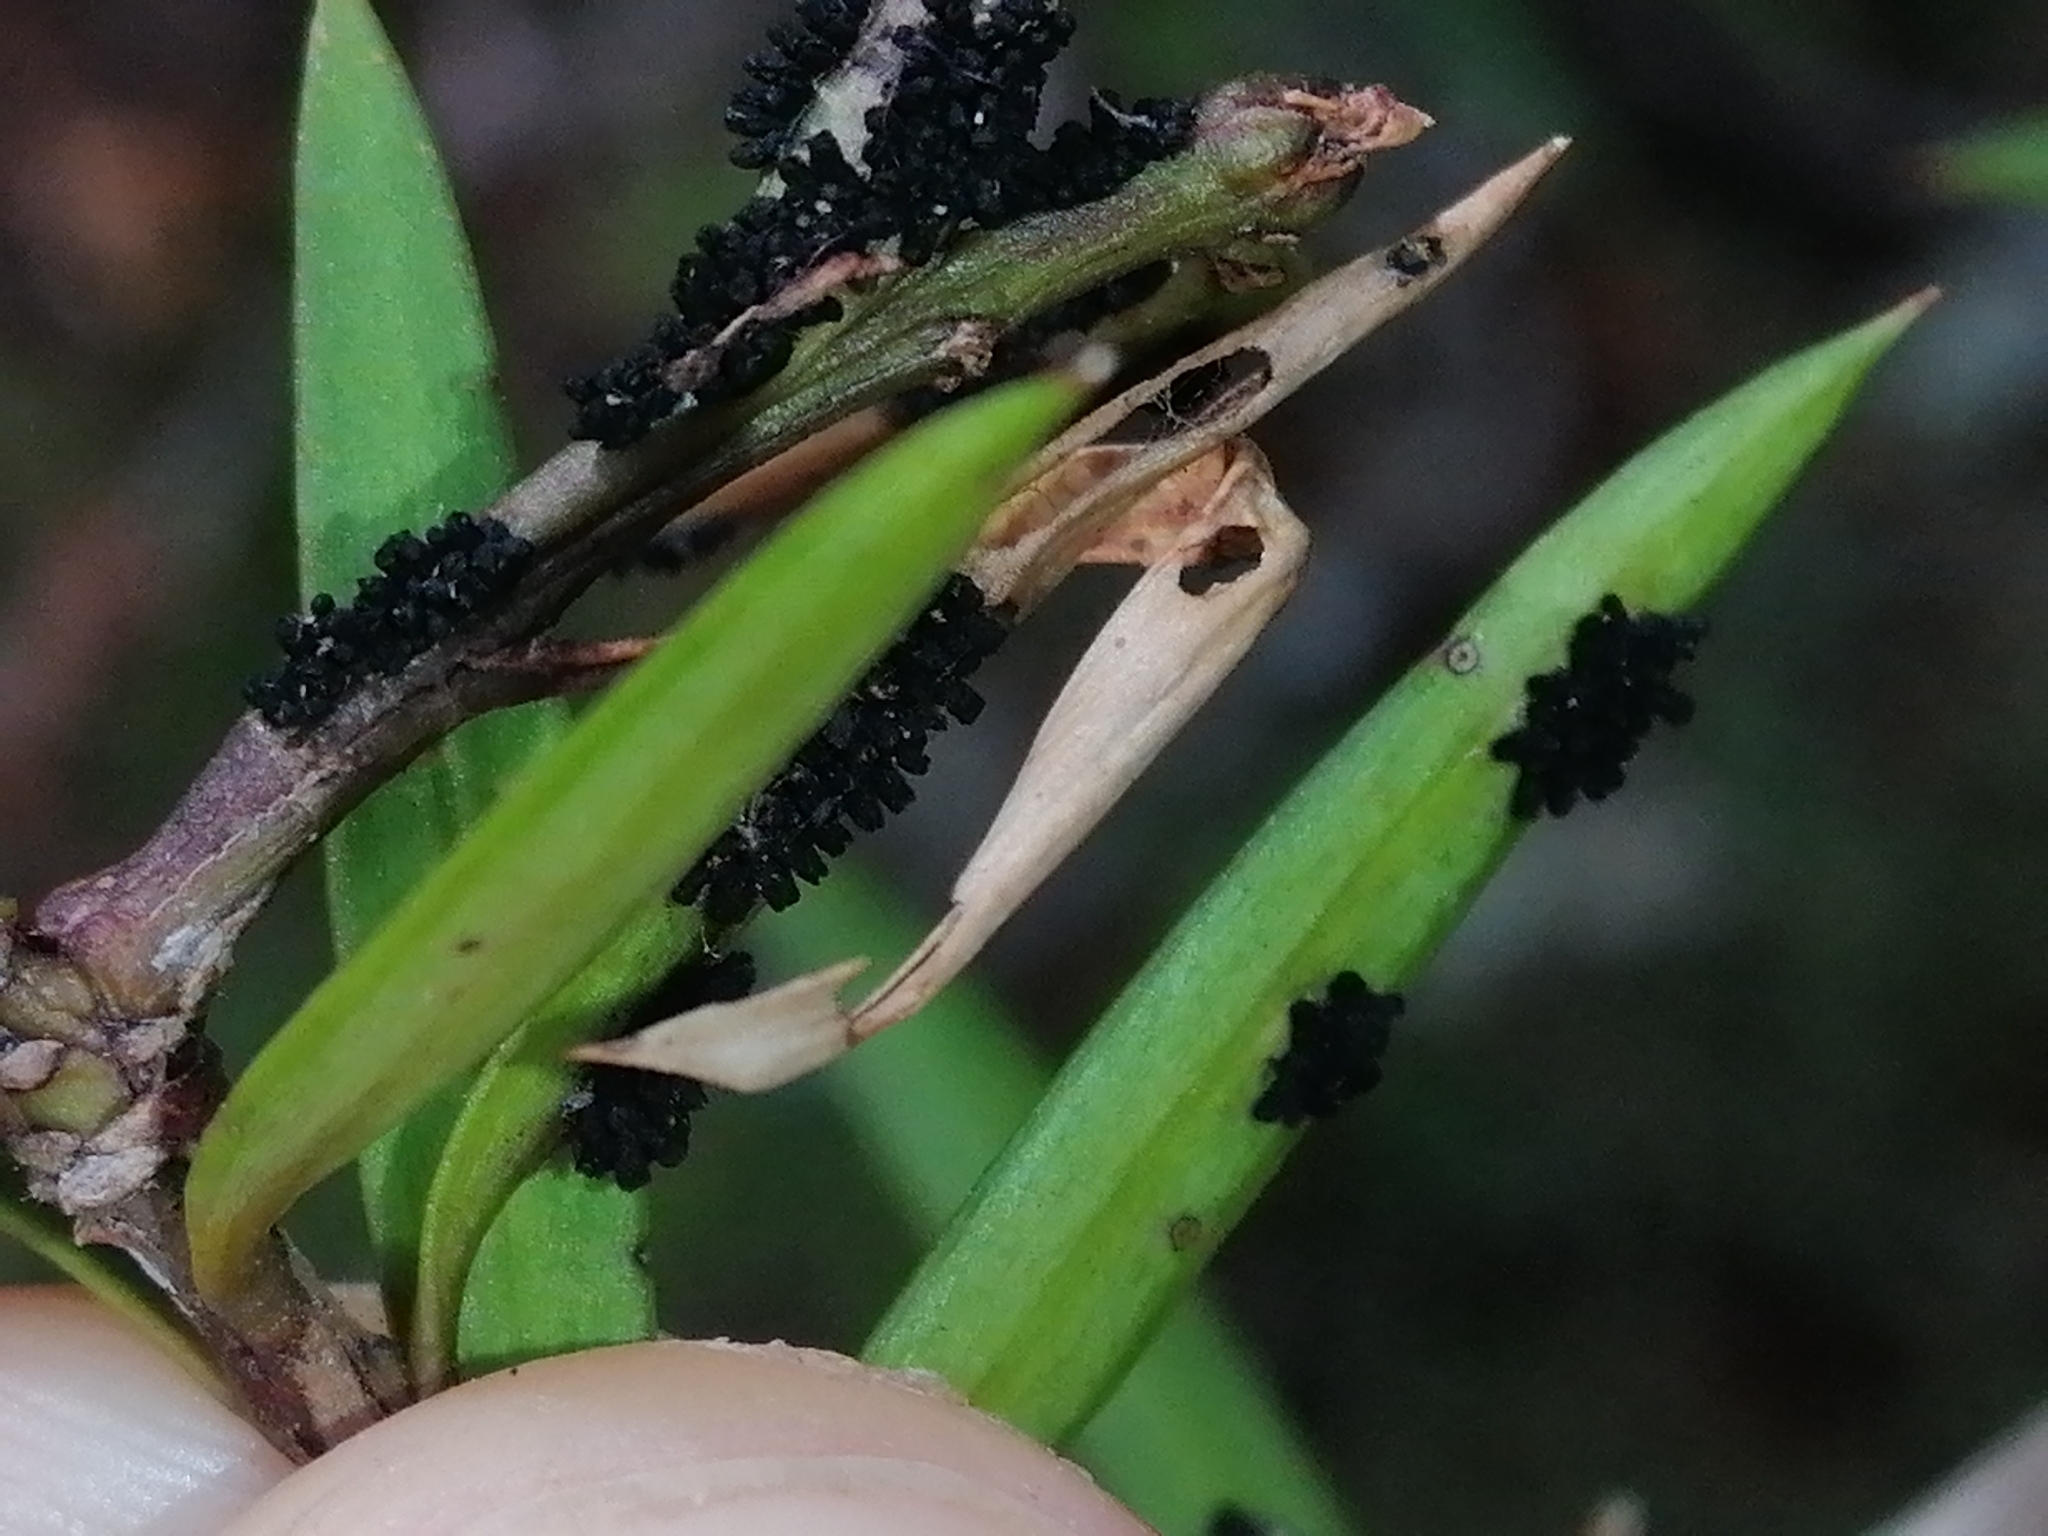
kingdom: Fungi
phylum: Ascomycota
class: Eurotiomycetes
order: Coryneliales
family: Coryneliaceae
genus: Corynelia
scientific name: Corynelia tropica
